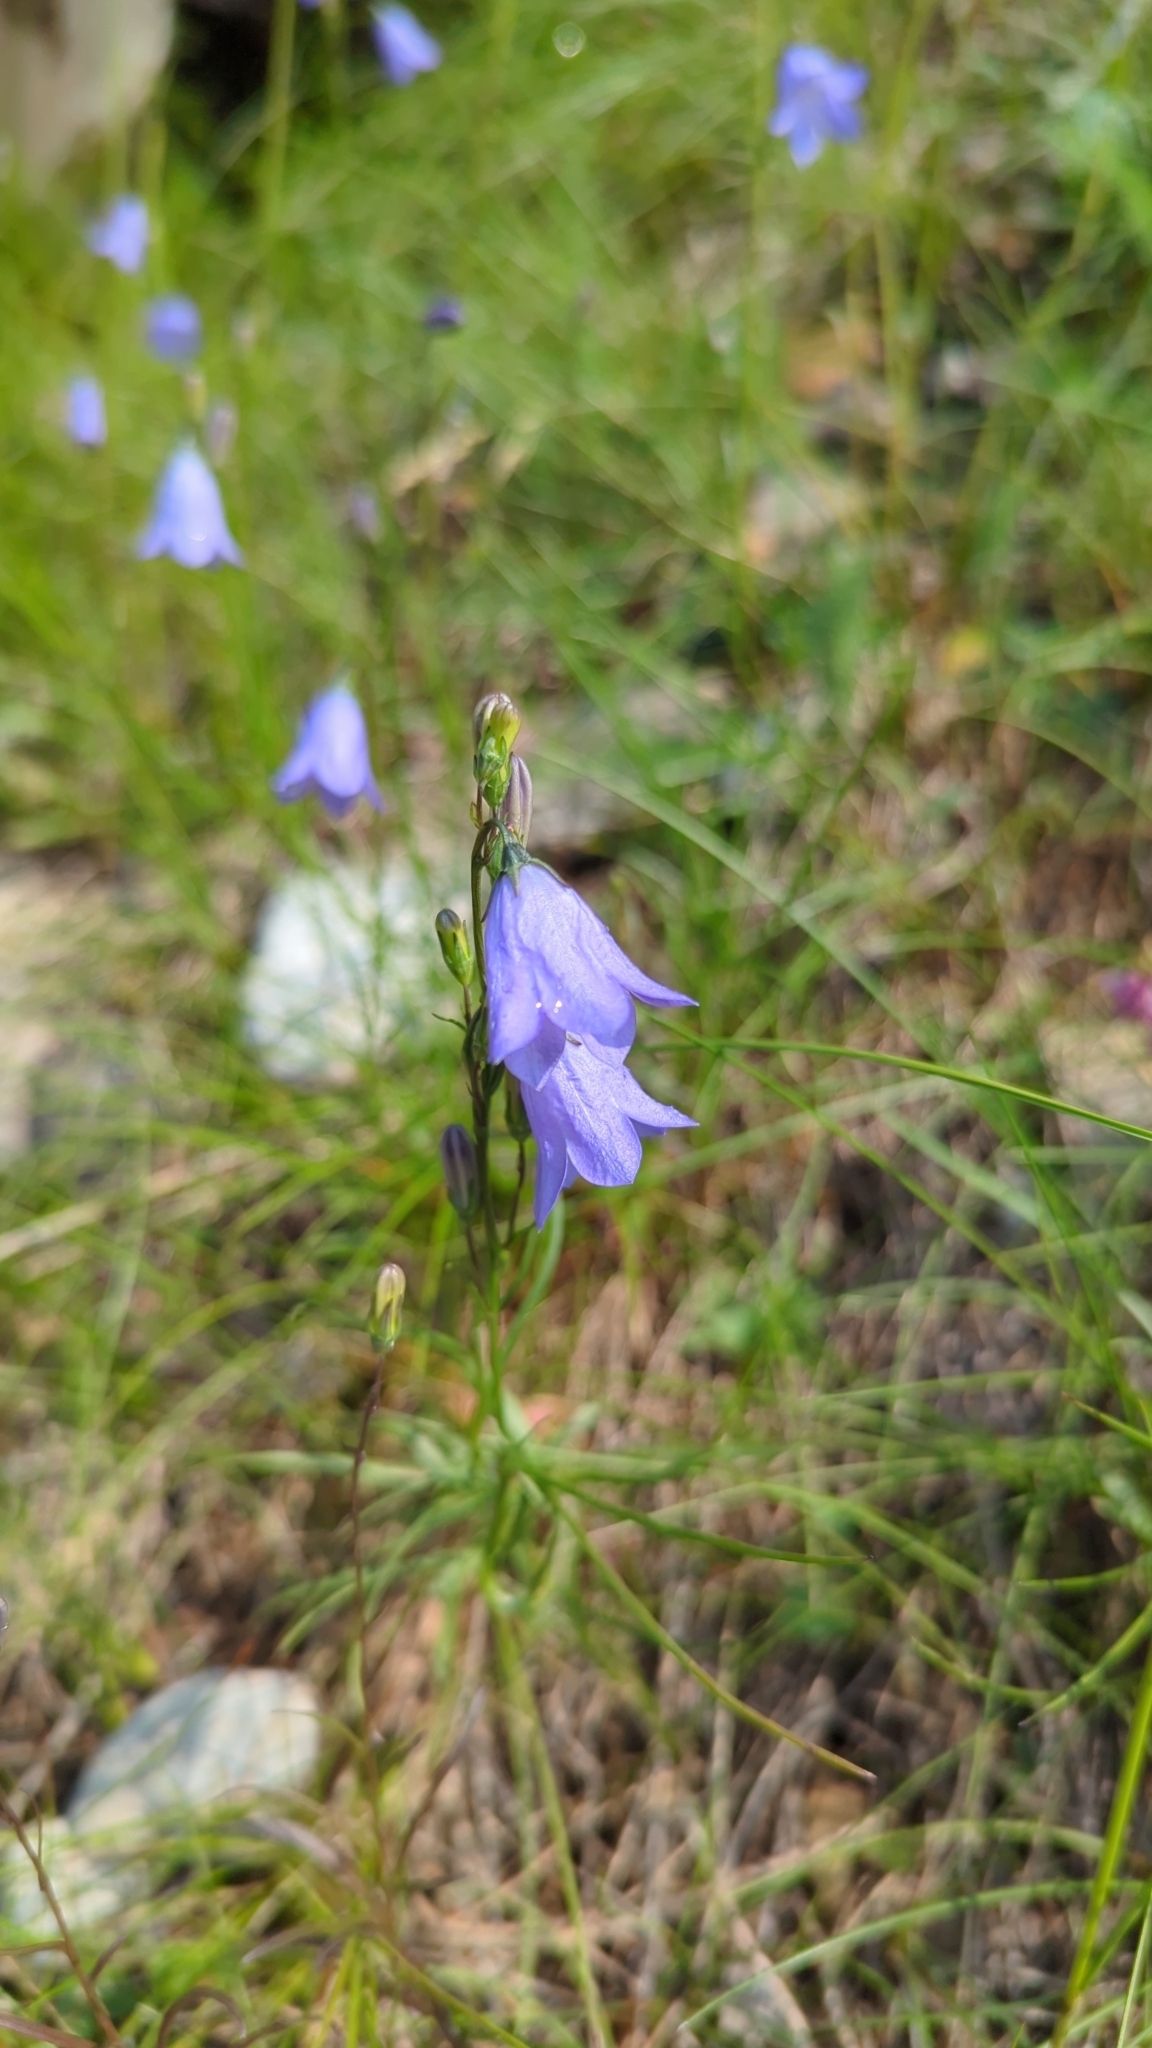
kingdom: Plantae
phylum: Tracheophyta
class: Magnoliopsida
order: Asterales
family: Campanulaceae
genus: Campanula
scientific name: Campanula alaskana
